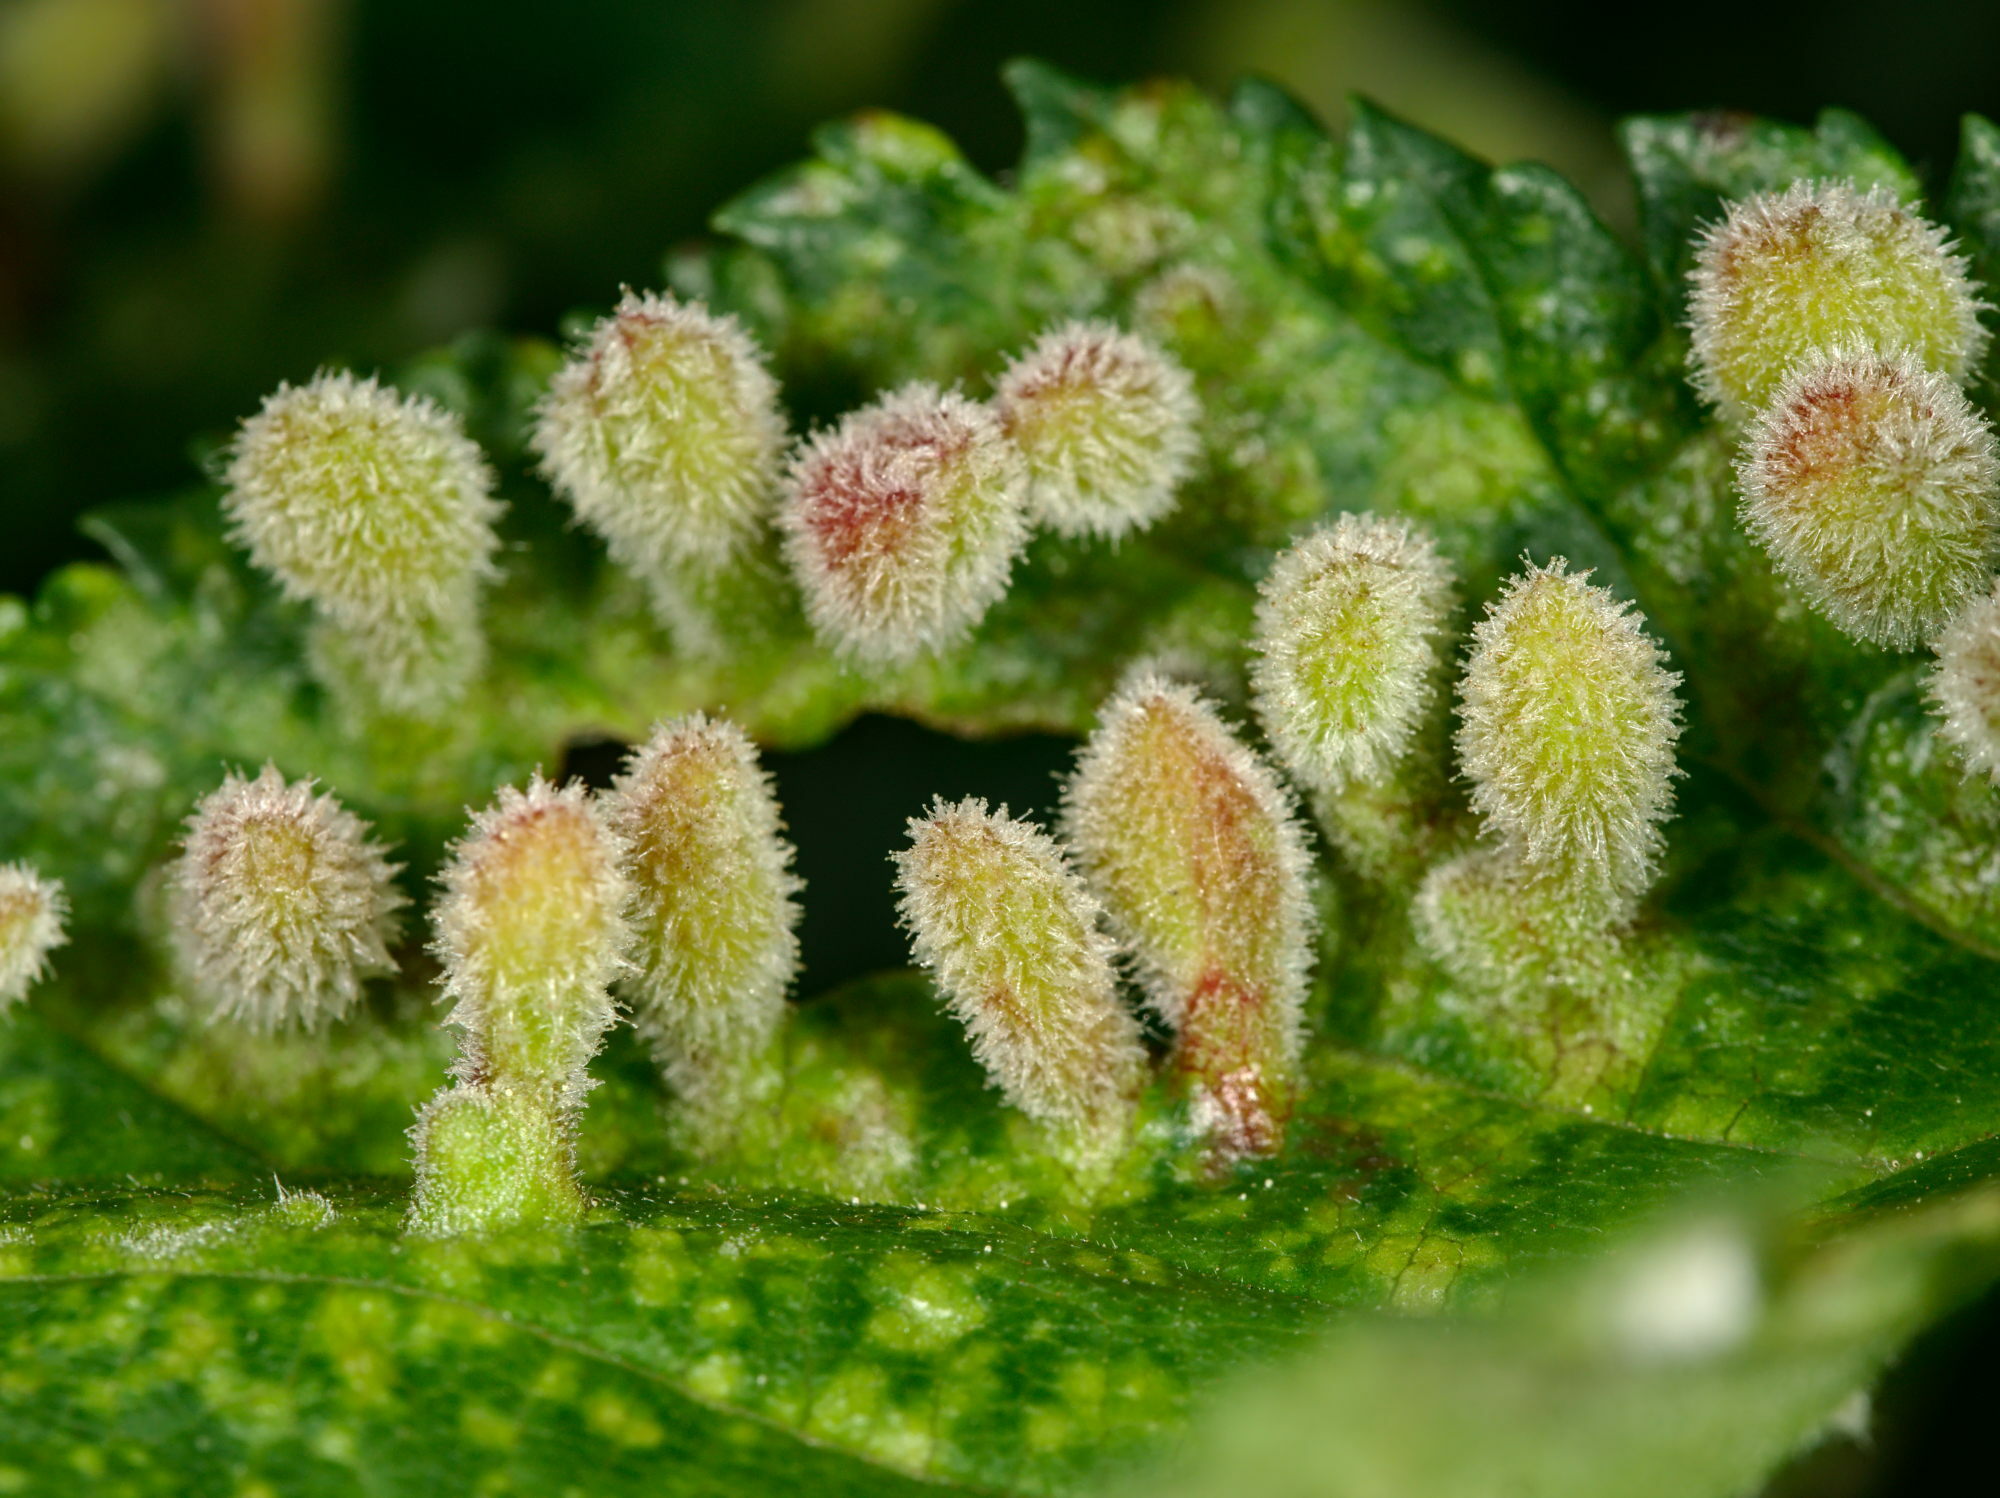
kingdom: Animalia
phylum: Arthropoda
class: Insecta
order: Hemiptera
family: Aphididae
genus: Tetraneura
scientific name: Tetraneura nigriabdominalis
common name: Aphid
